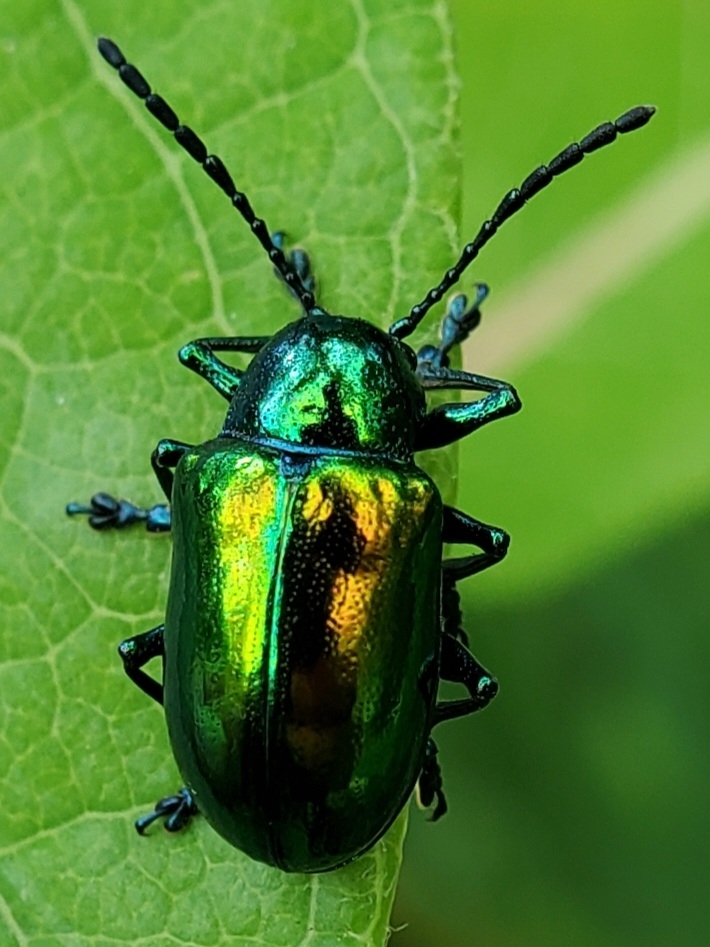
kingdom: Animalia
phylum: Arthropoda
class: Insecta
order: Coleoptera
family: Chrysomelidae
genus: Chrysochus
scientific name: Chrysochus auratus
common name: Dogbane leaf beetle
